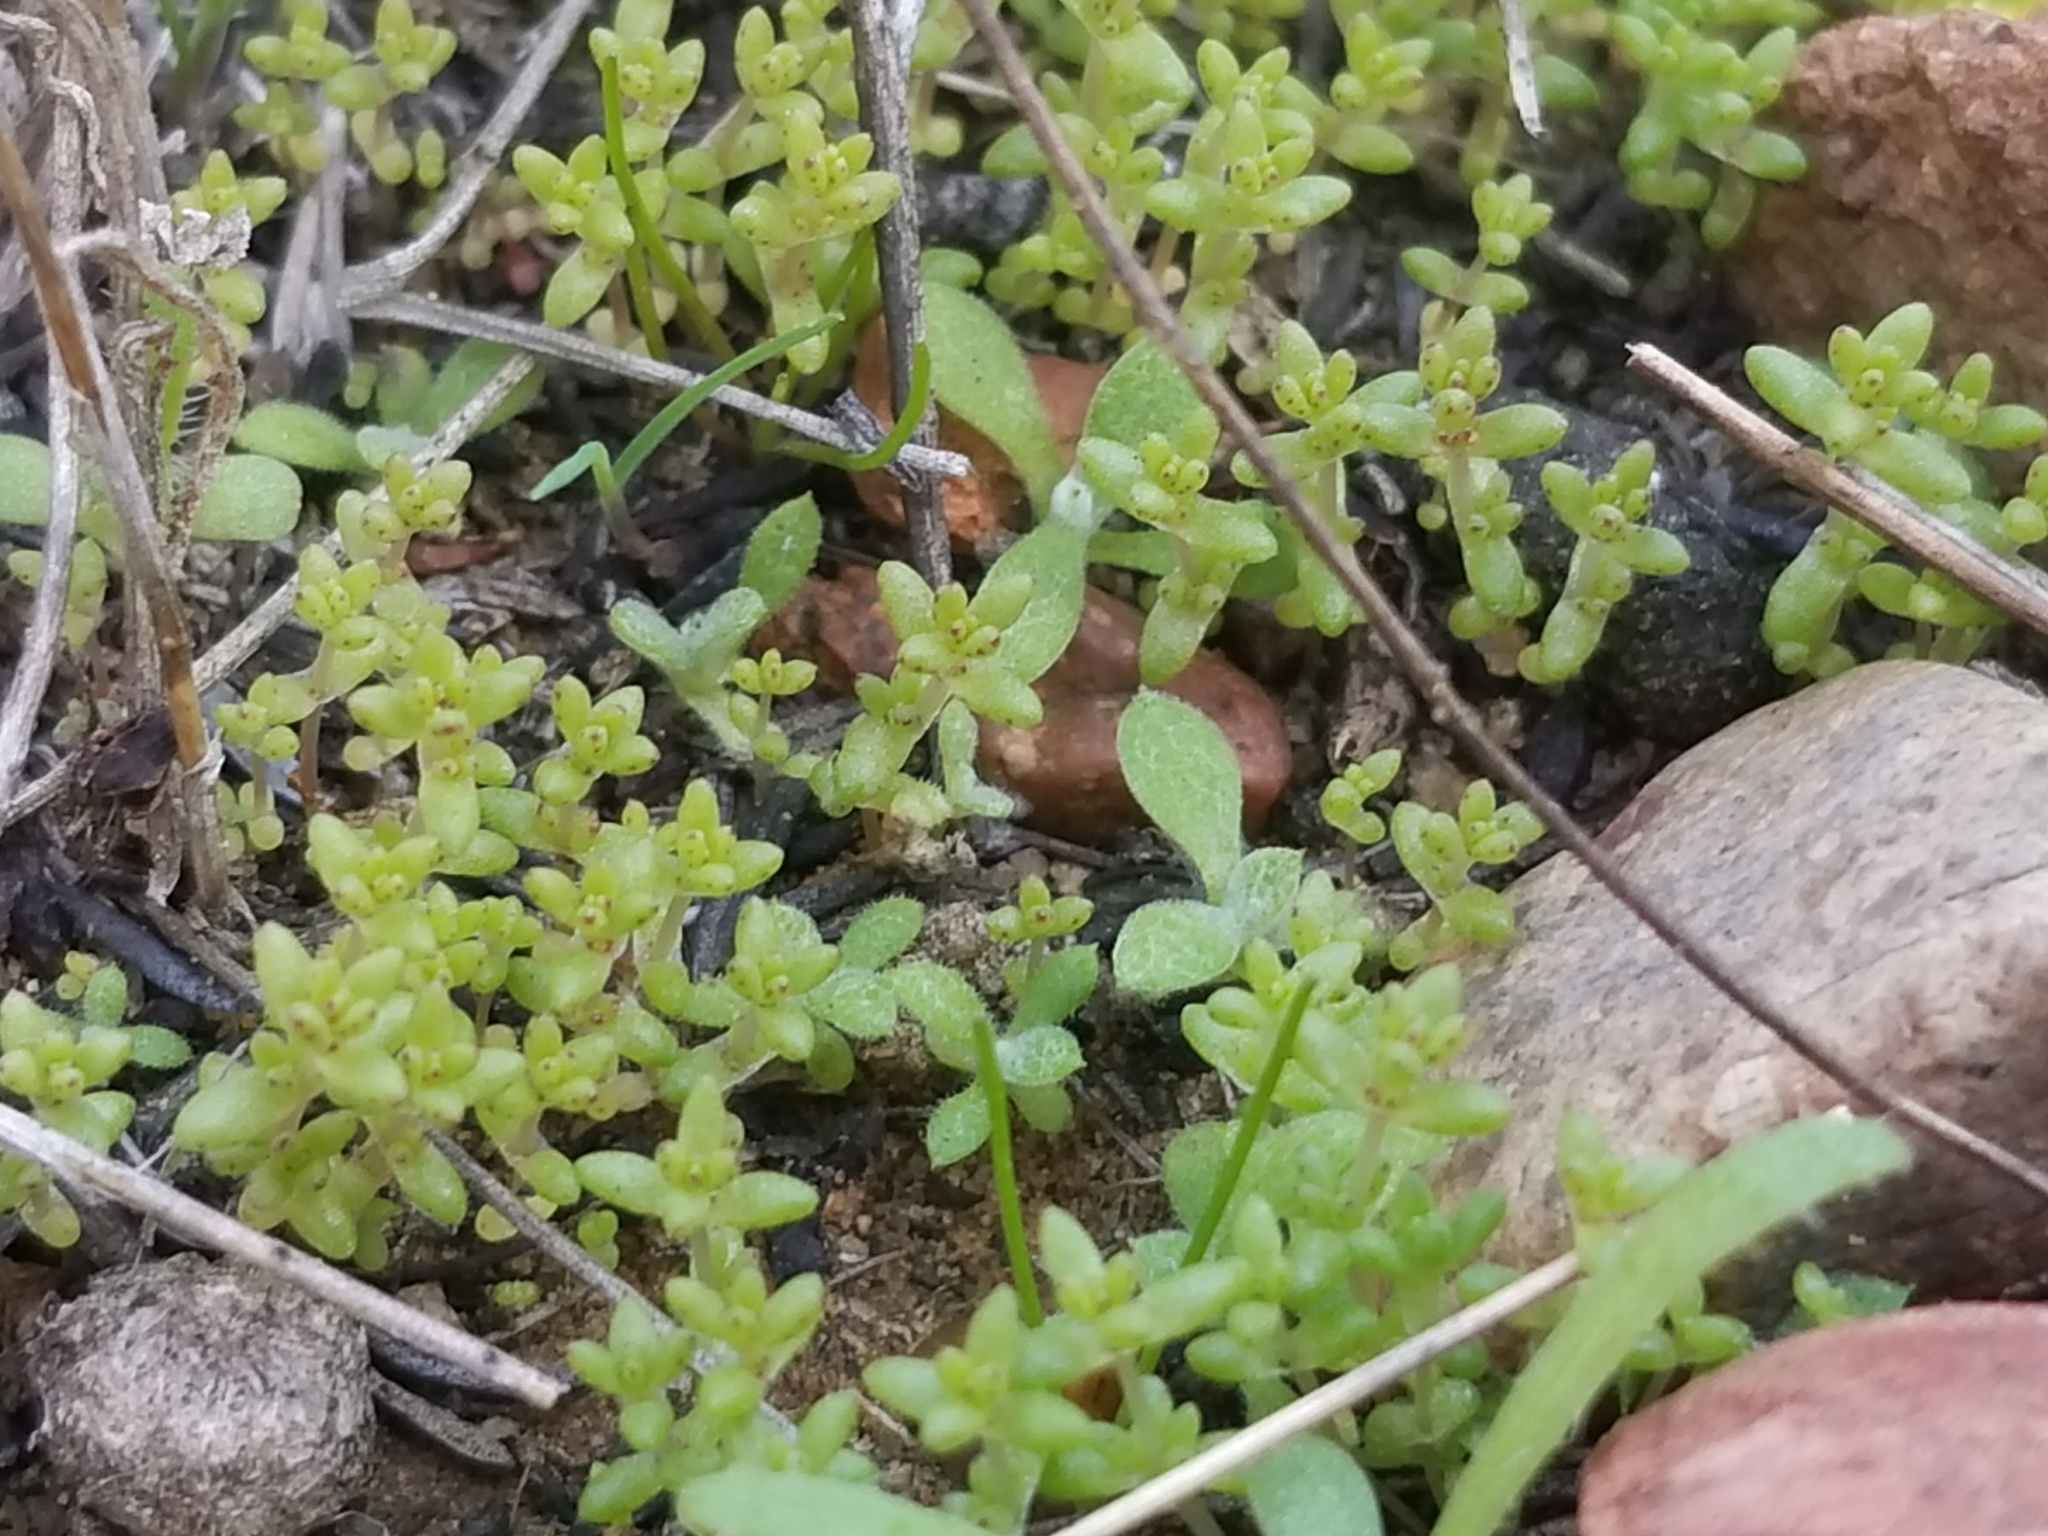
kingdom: Plantae
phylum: Tracheophyta
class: Magnoliopsida
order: Saxifragales
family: Crassulaceae
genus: Crassula
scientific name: Crassula connata
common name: Erect pygmyweed
